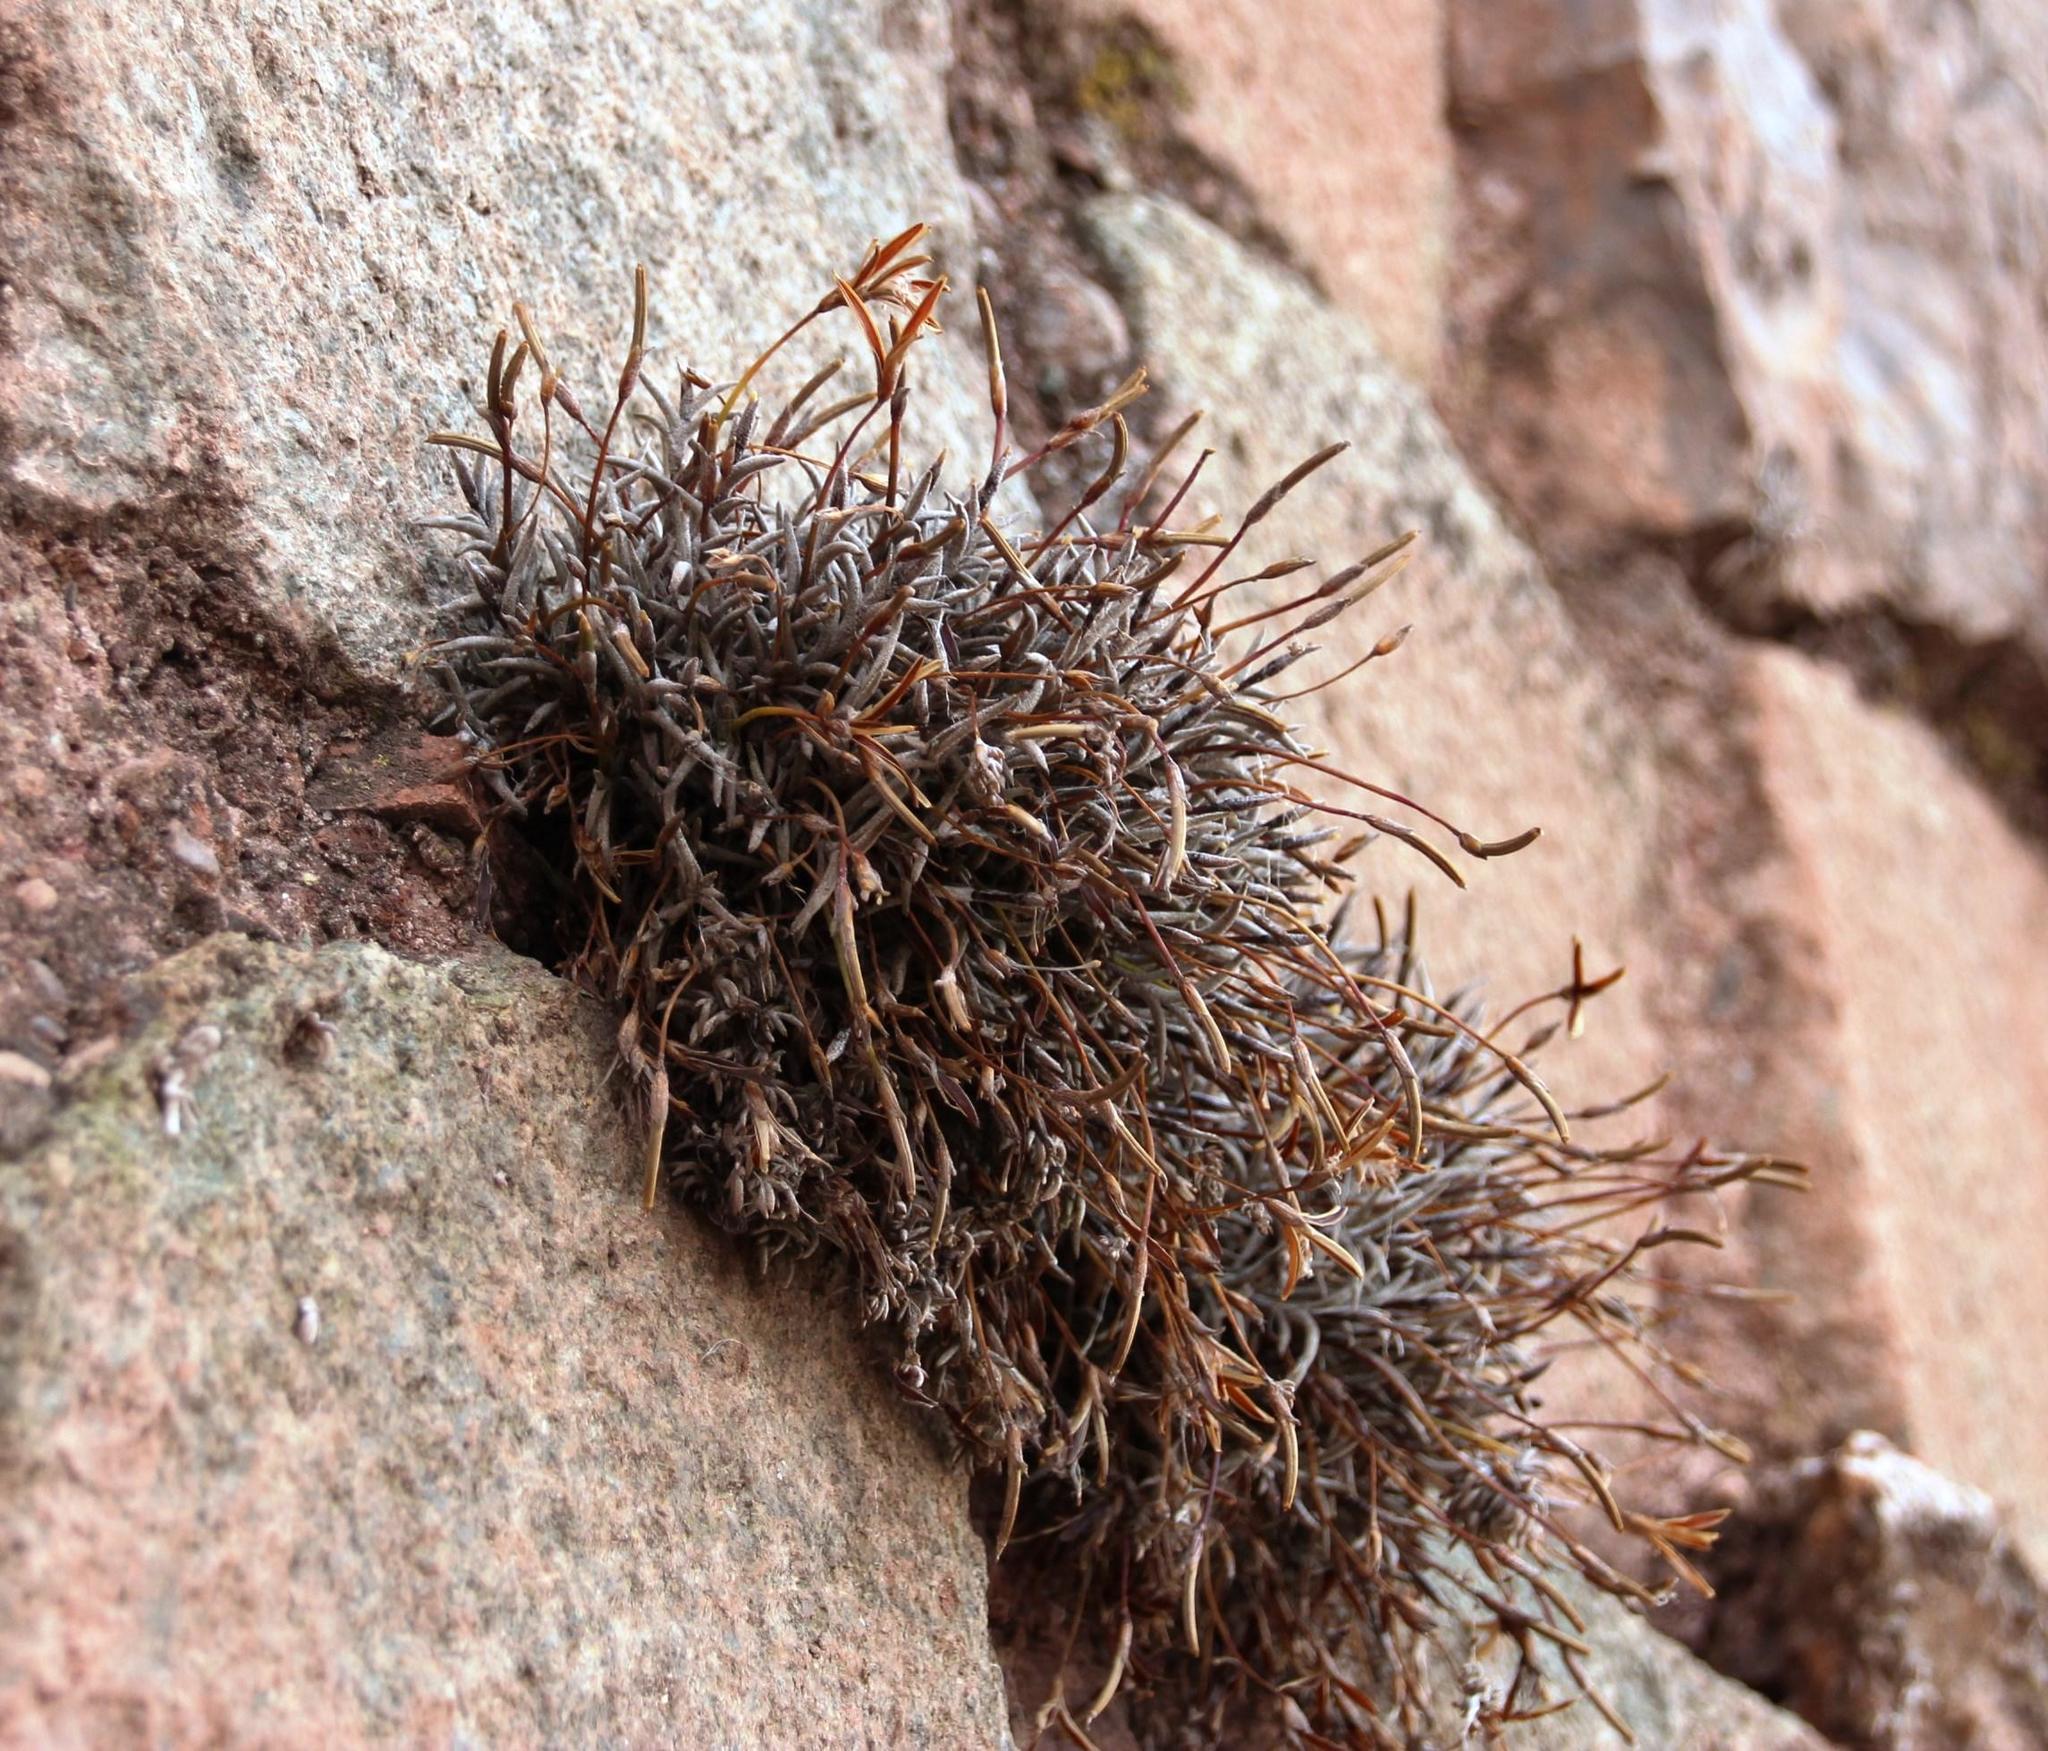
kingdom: Plantae
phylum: Tracheophyta
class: Liliopsida
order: Poales
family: Bromeliaceae
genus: Tillandsia
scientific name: Tillandsia recurvata
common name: Small ballmoss
